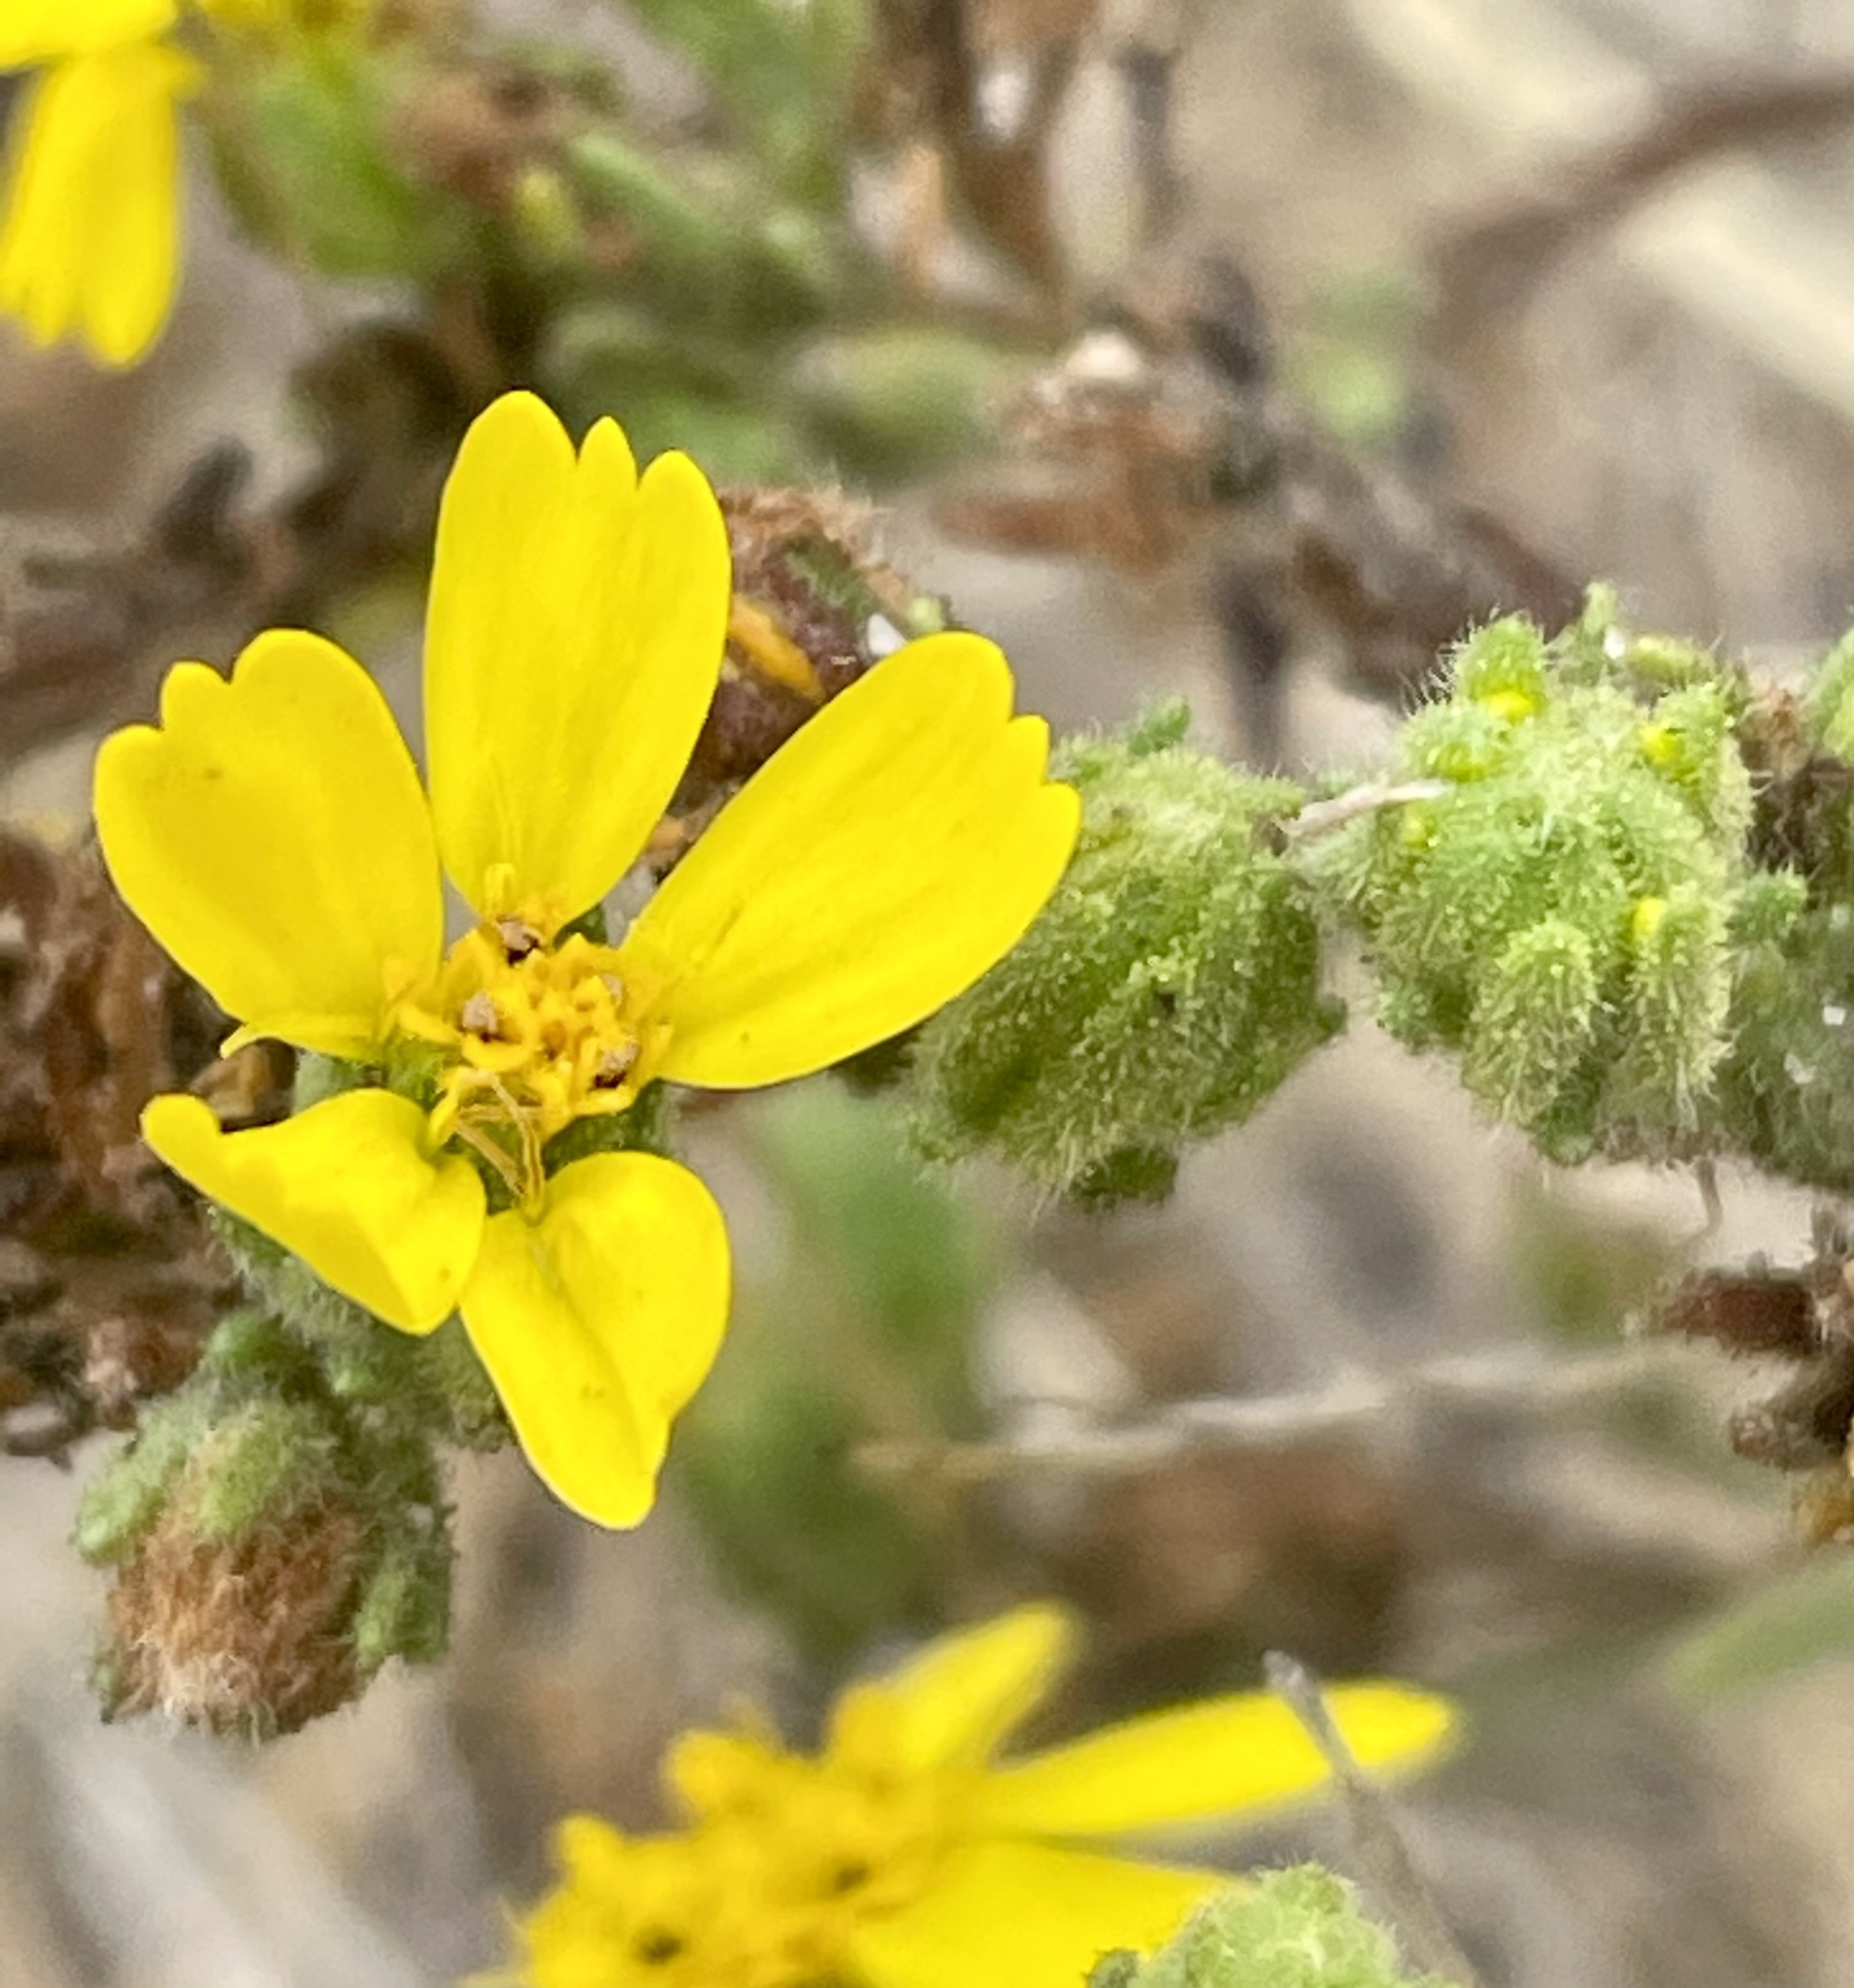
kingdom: Plantae
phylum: Tracheophyta
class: Magnoliopsida
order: Asterales
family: Asteraceae
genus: Deinandra
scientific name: Deinandra paniculata
